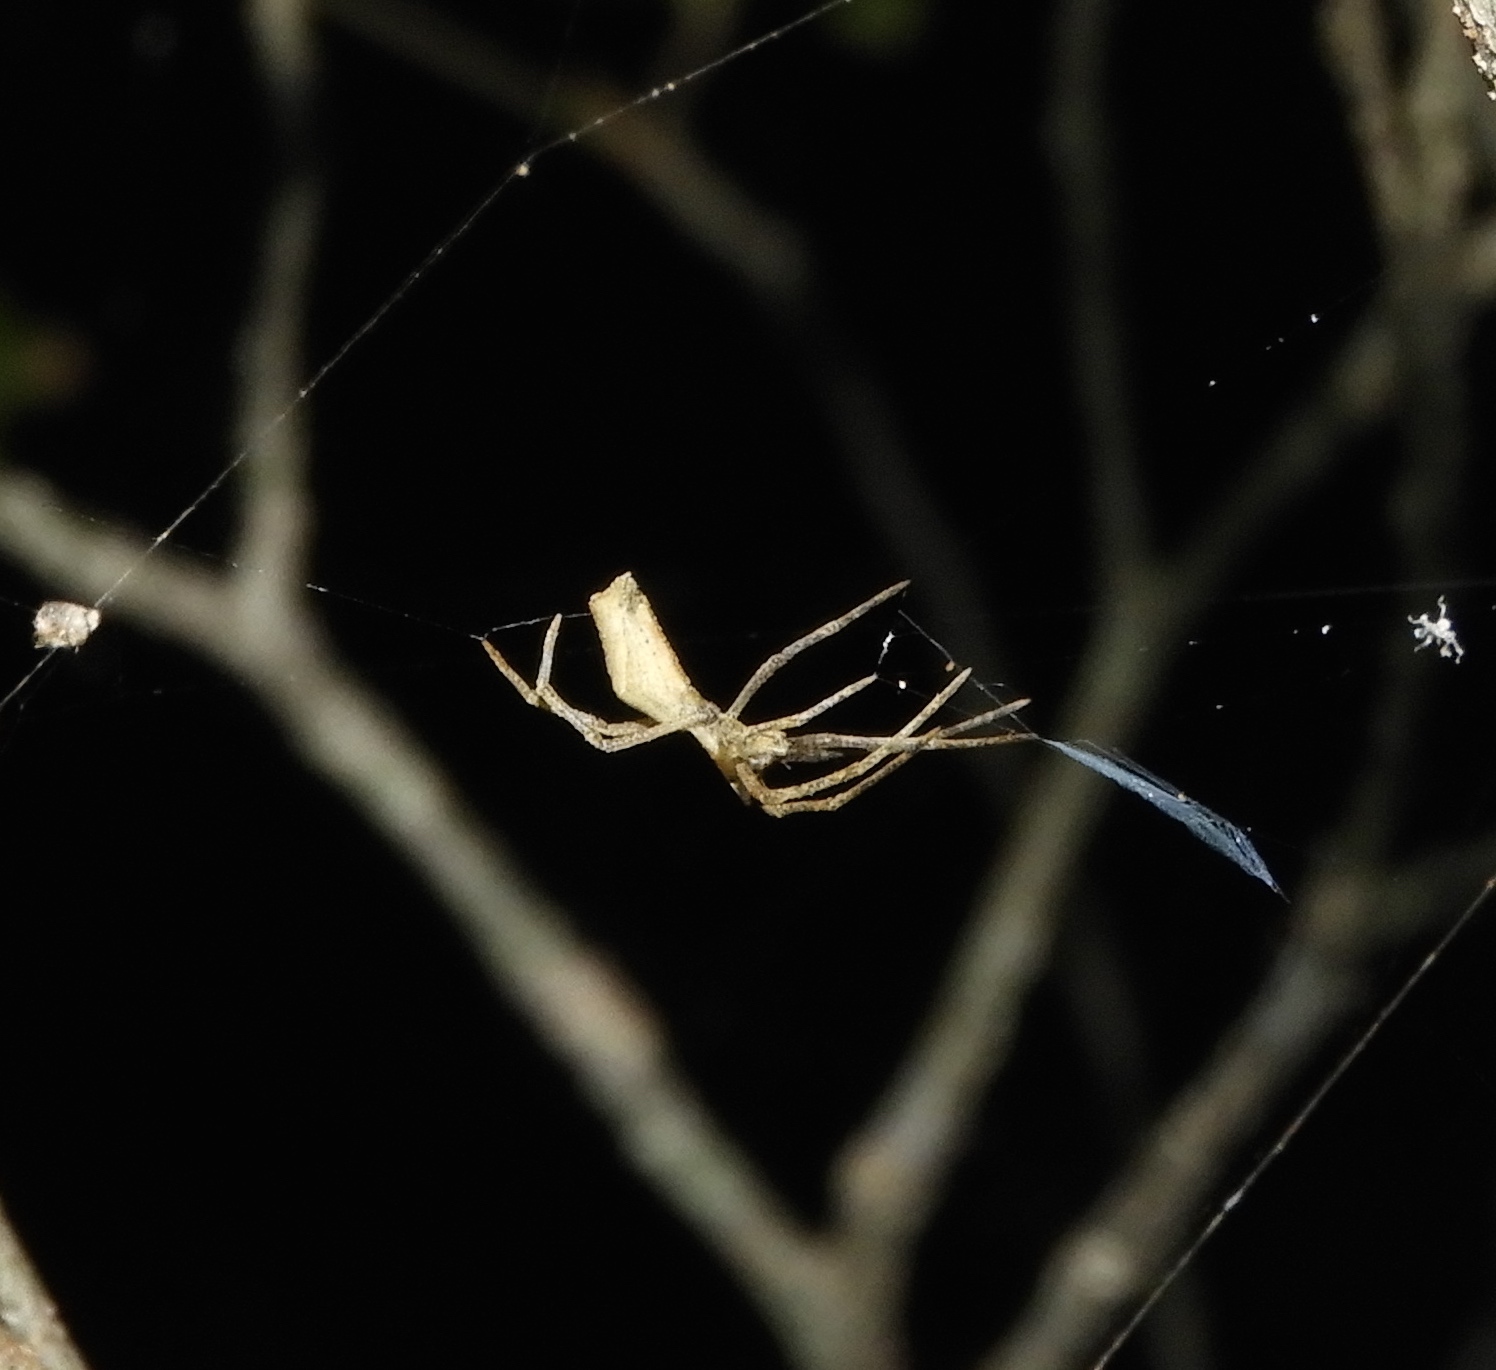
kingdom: Animalia
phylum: Arthropoda
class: Arachnida
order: Araneae
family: Deinopidae
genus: Deinopis
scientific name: Deinopis aurita
